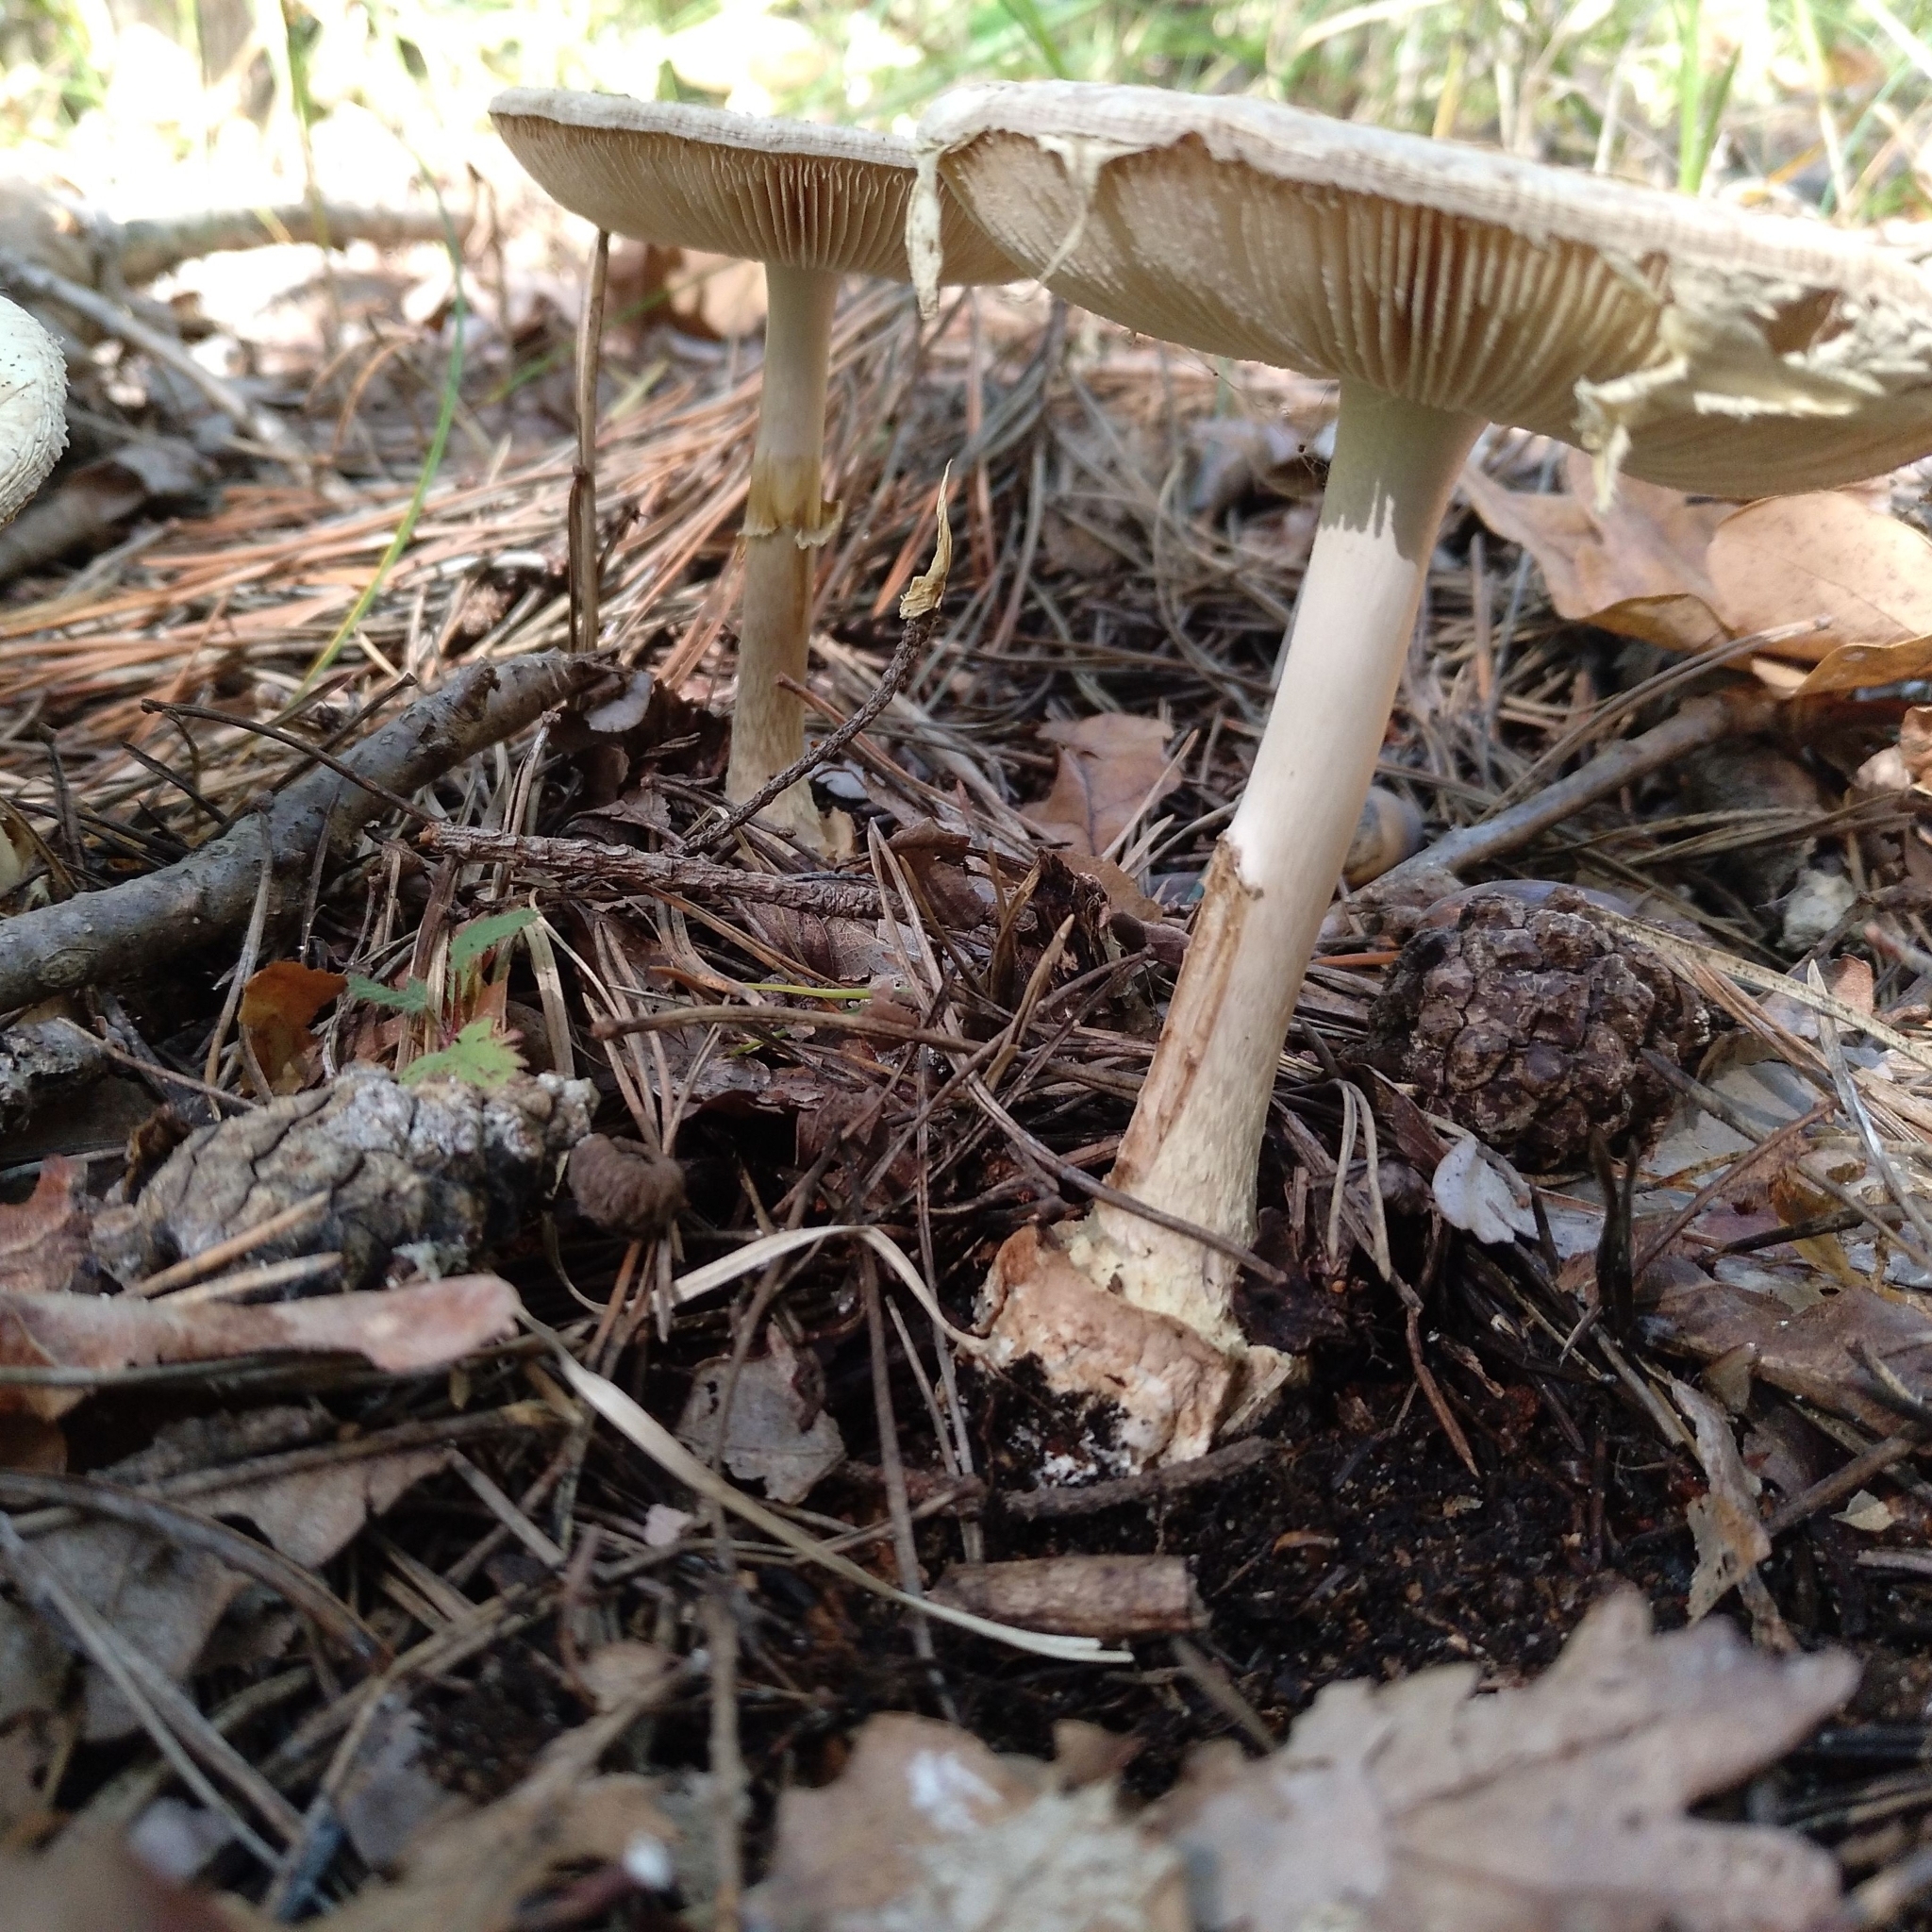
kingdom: Fungi
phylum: Basidiomycota
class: Agaricomycetes
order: Agaricales
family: Amanitaceae
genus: Amanita
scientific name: Amanita citrina
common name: False death-cap
